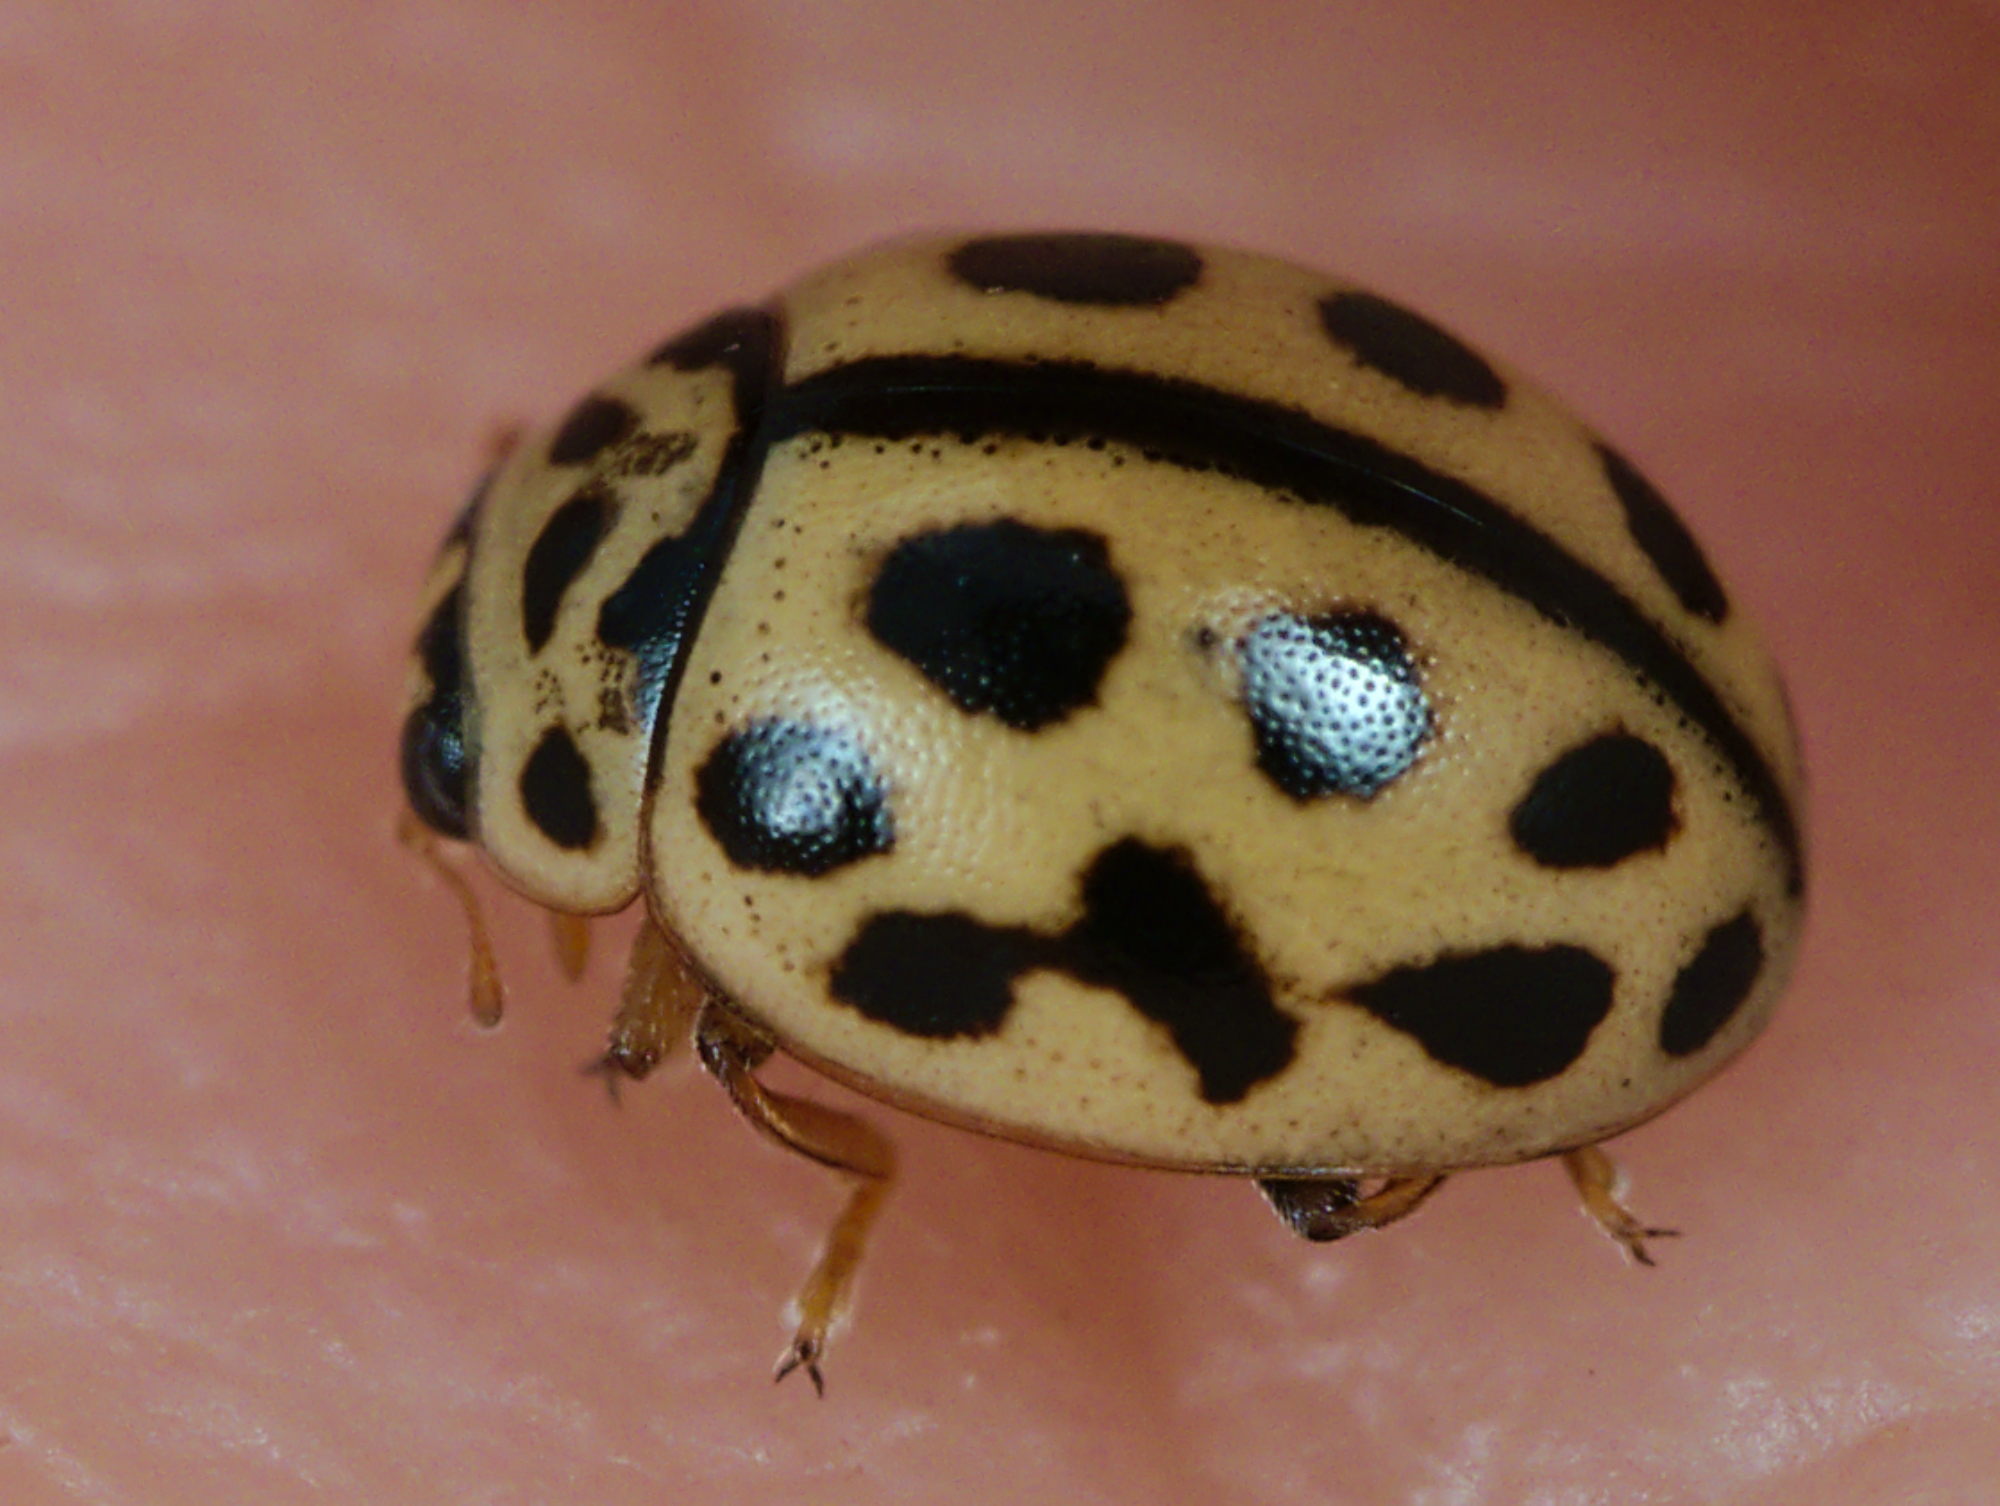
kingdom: Animalia
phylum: Arthropoda
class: Insecta
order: Coleoptera
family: Coccinellidae
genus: Tytthaspis
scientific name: Tytthaspis sedecimpunctata
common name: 16-spot ladybird
